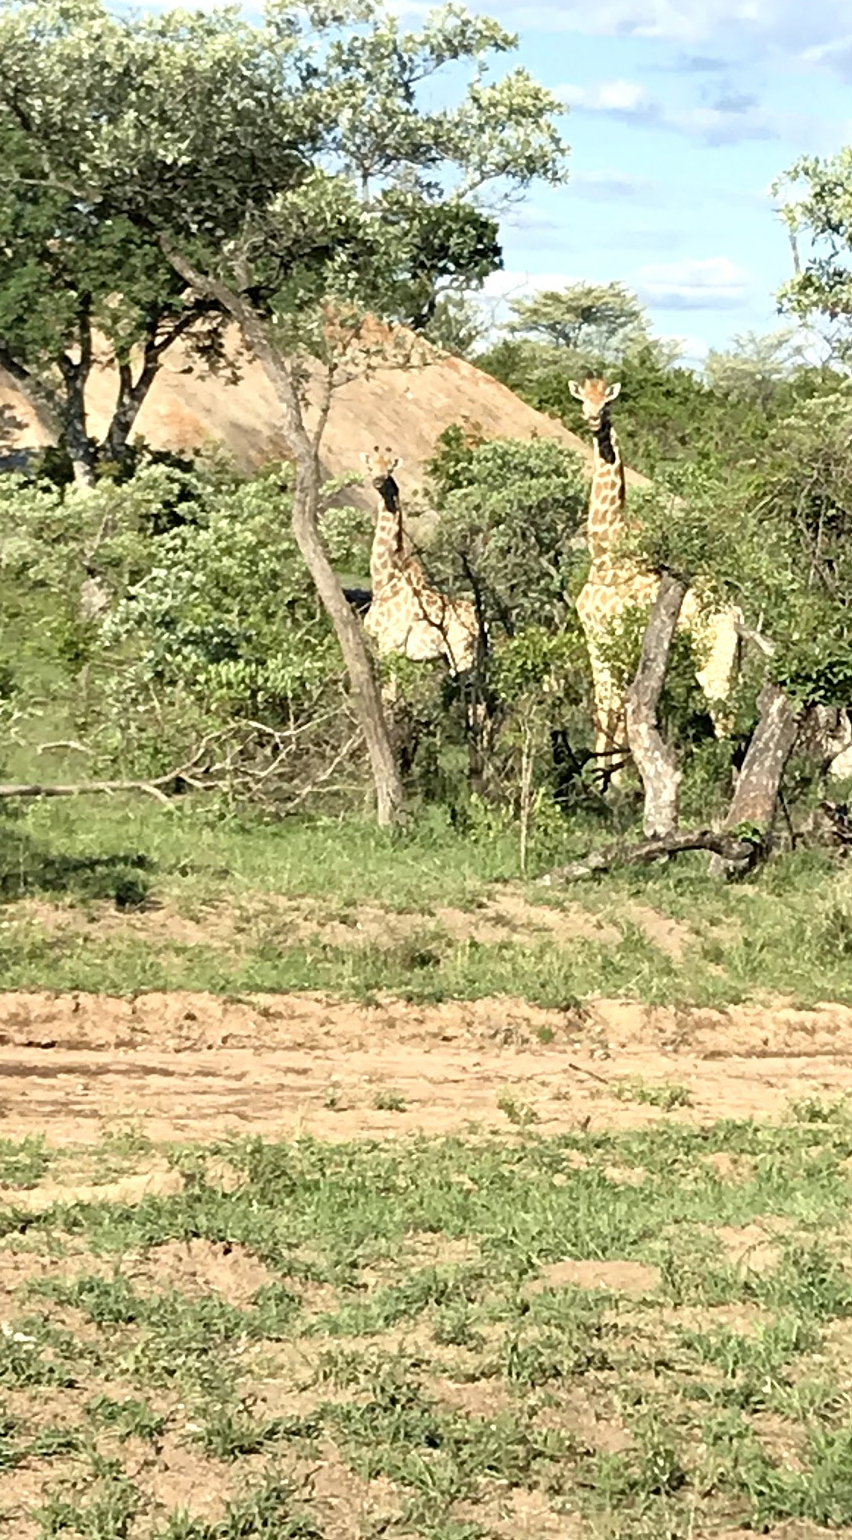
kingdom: Animalia
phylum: Chordata
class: Mammalia
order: Artiodactyla
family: Giraffidae
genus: Giraffa
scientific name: Giraffa giraffa
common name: Southern giraffe
